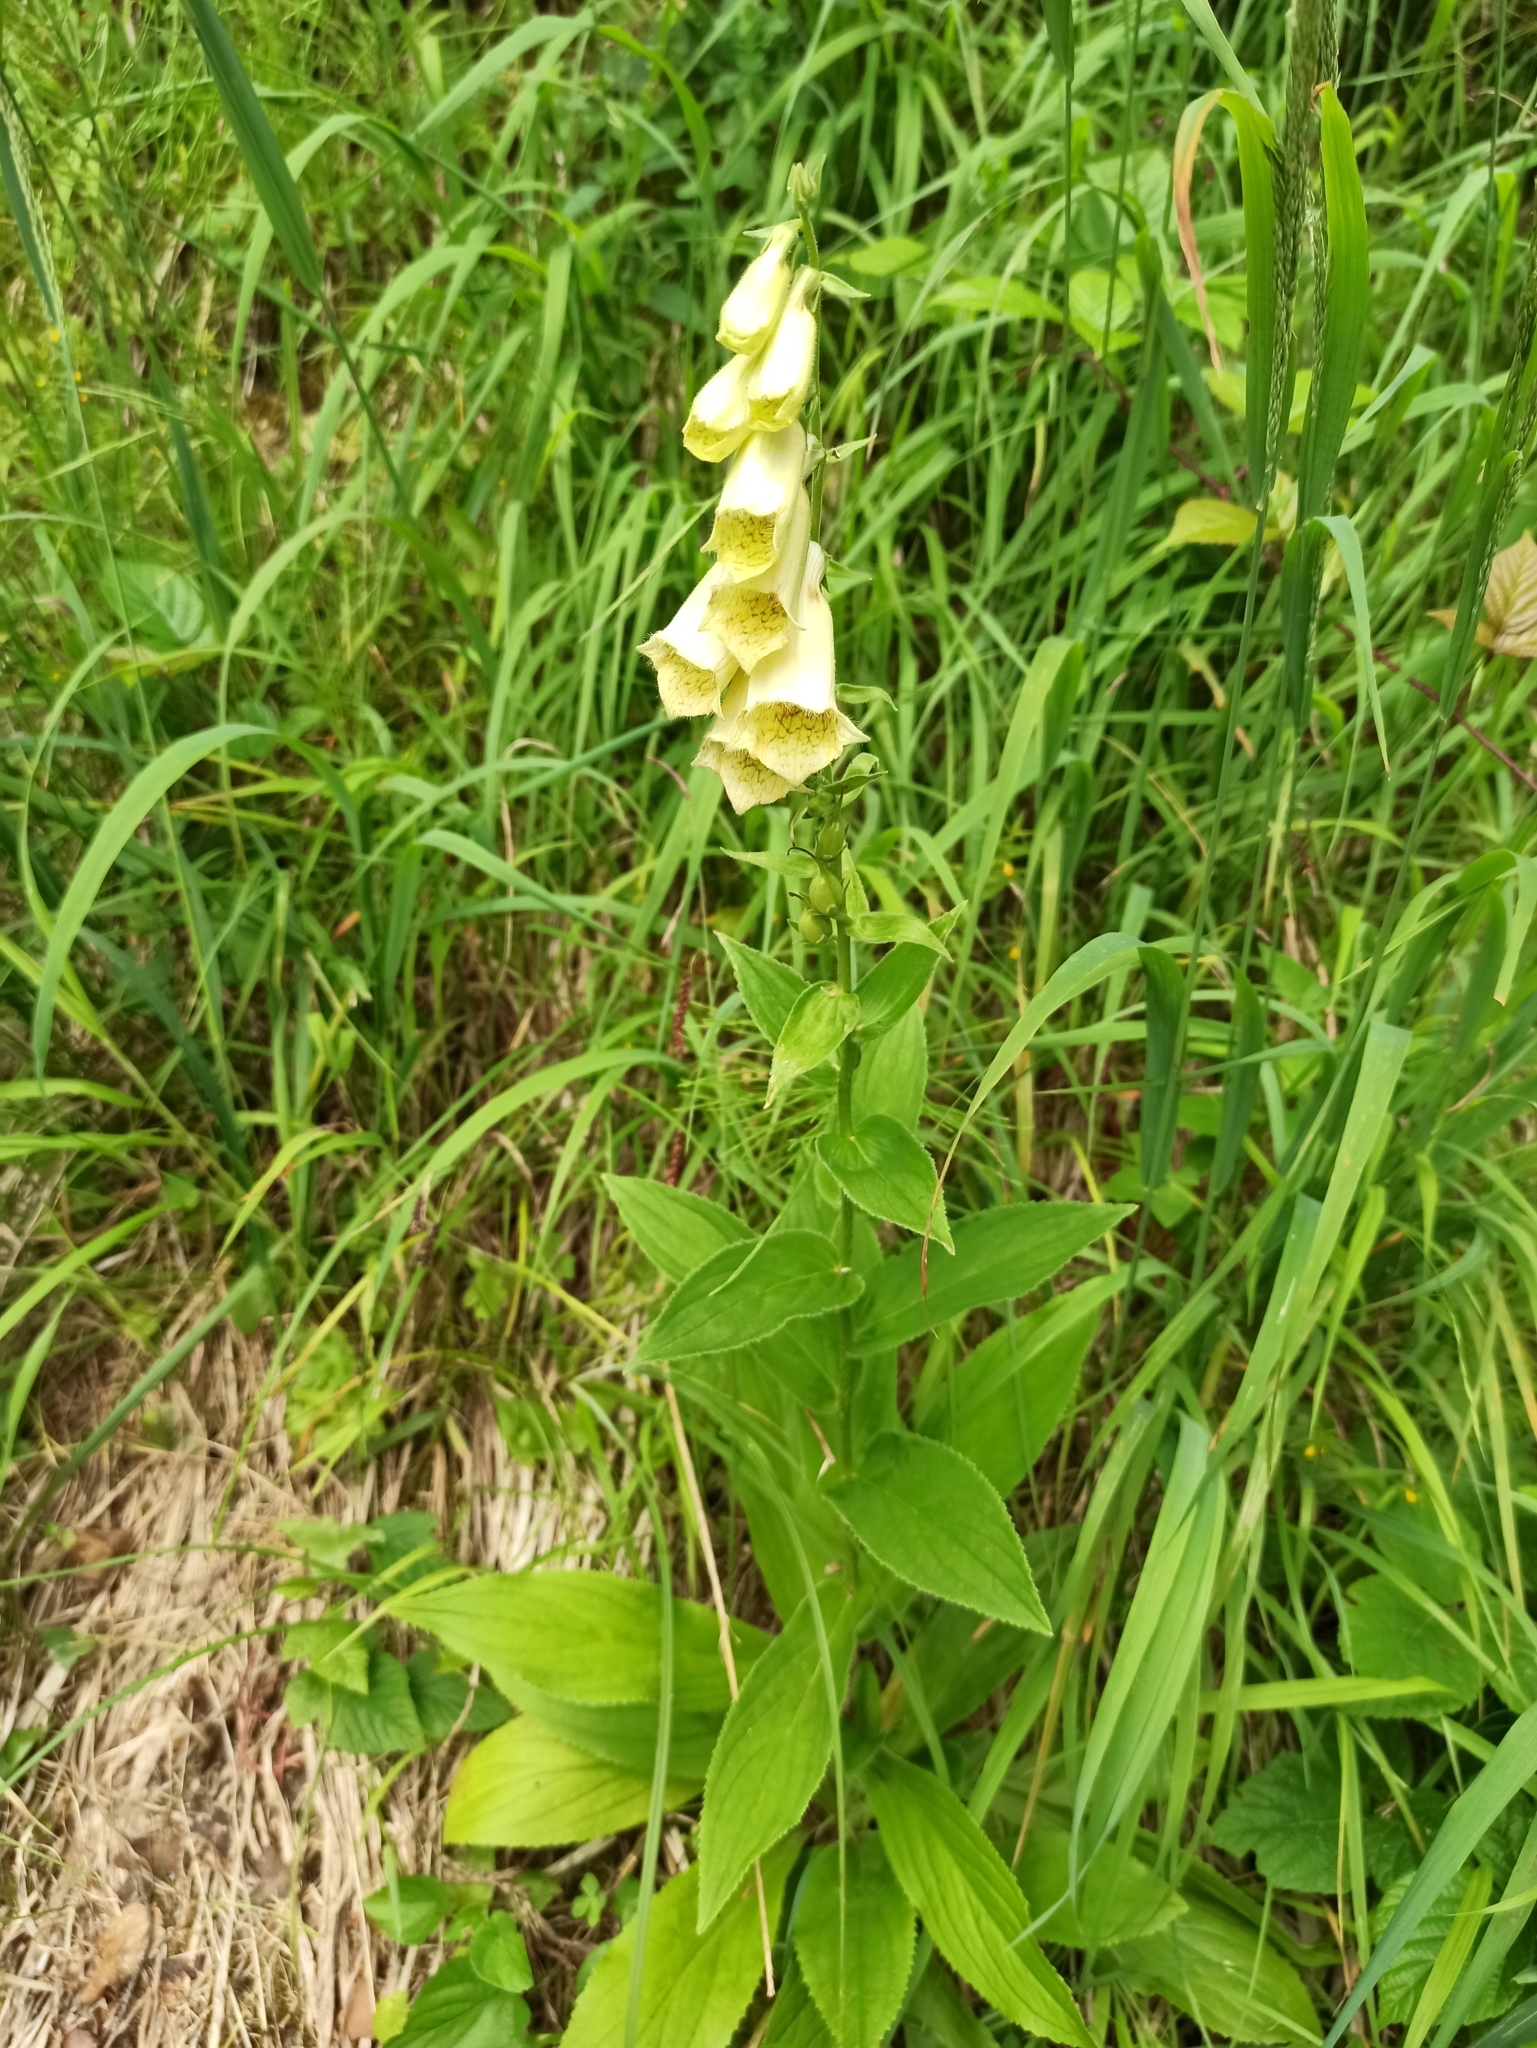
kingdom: Plantae
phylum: Tracheophyta
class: Magnoliopsida
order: Lamiales
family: Plantaginaceae
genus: Digitalis
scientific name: Digitalis grandiflora
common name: Yellow foxglove
